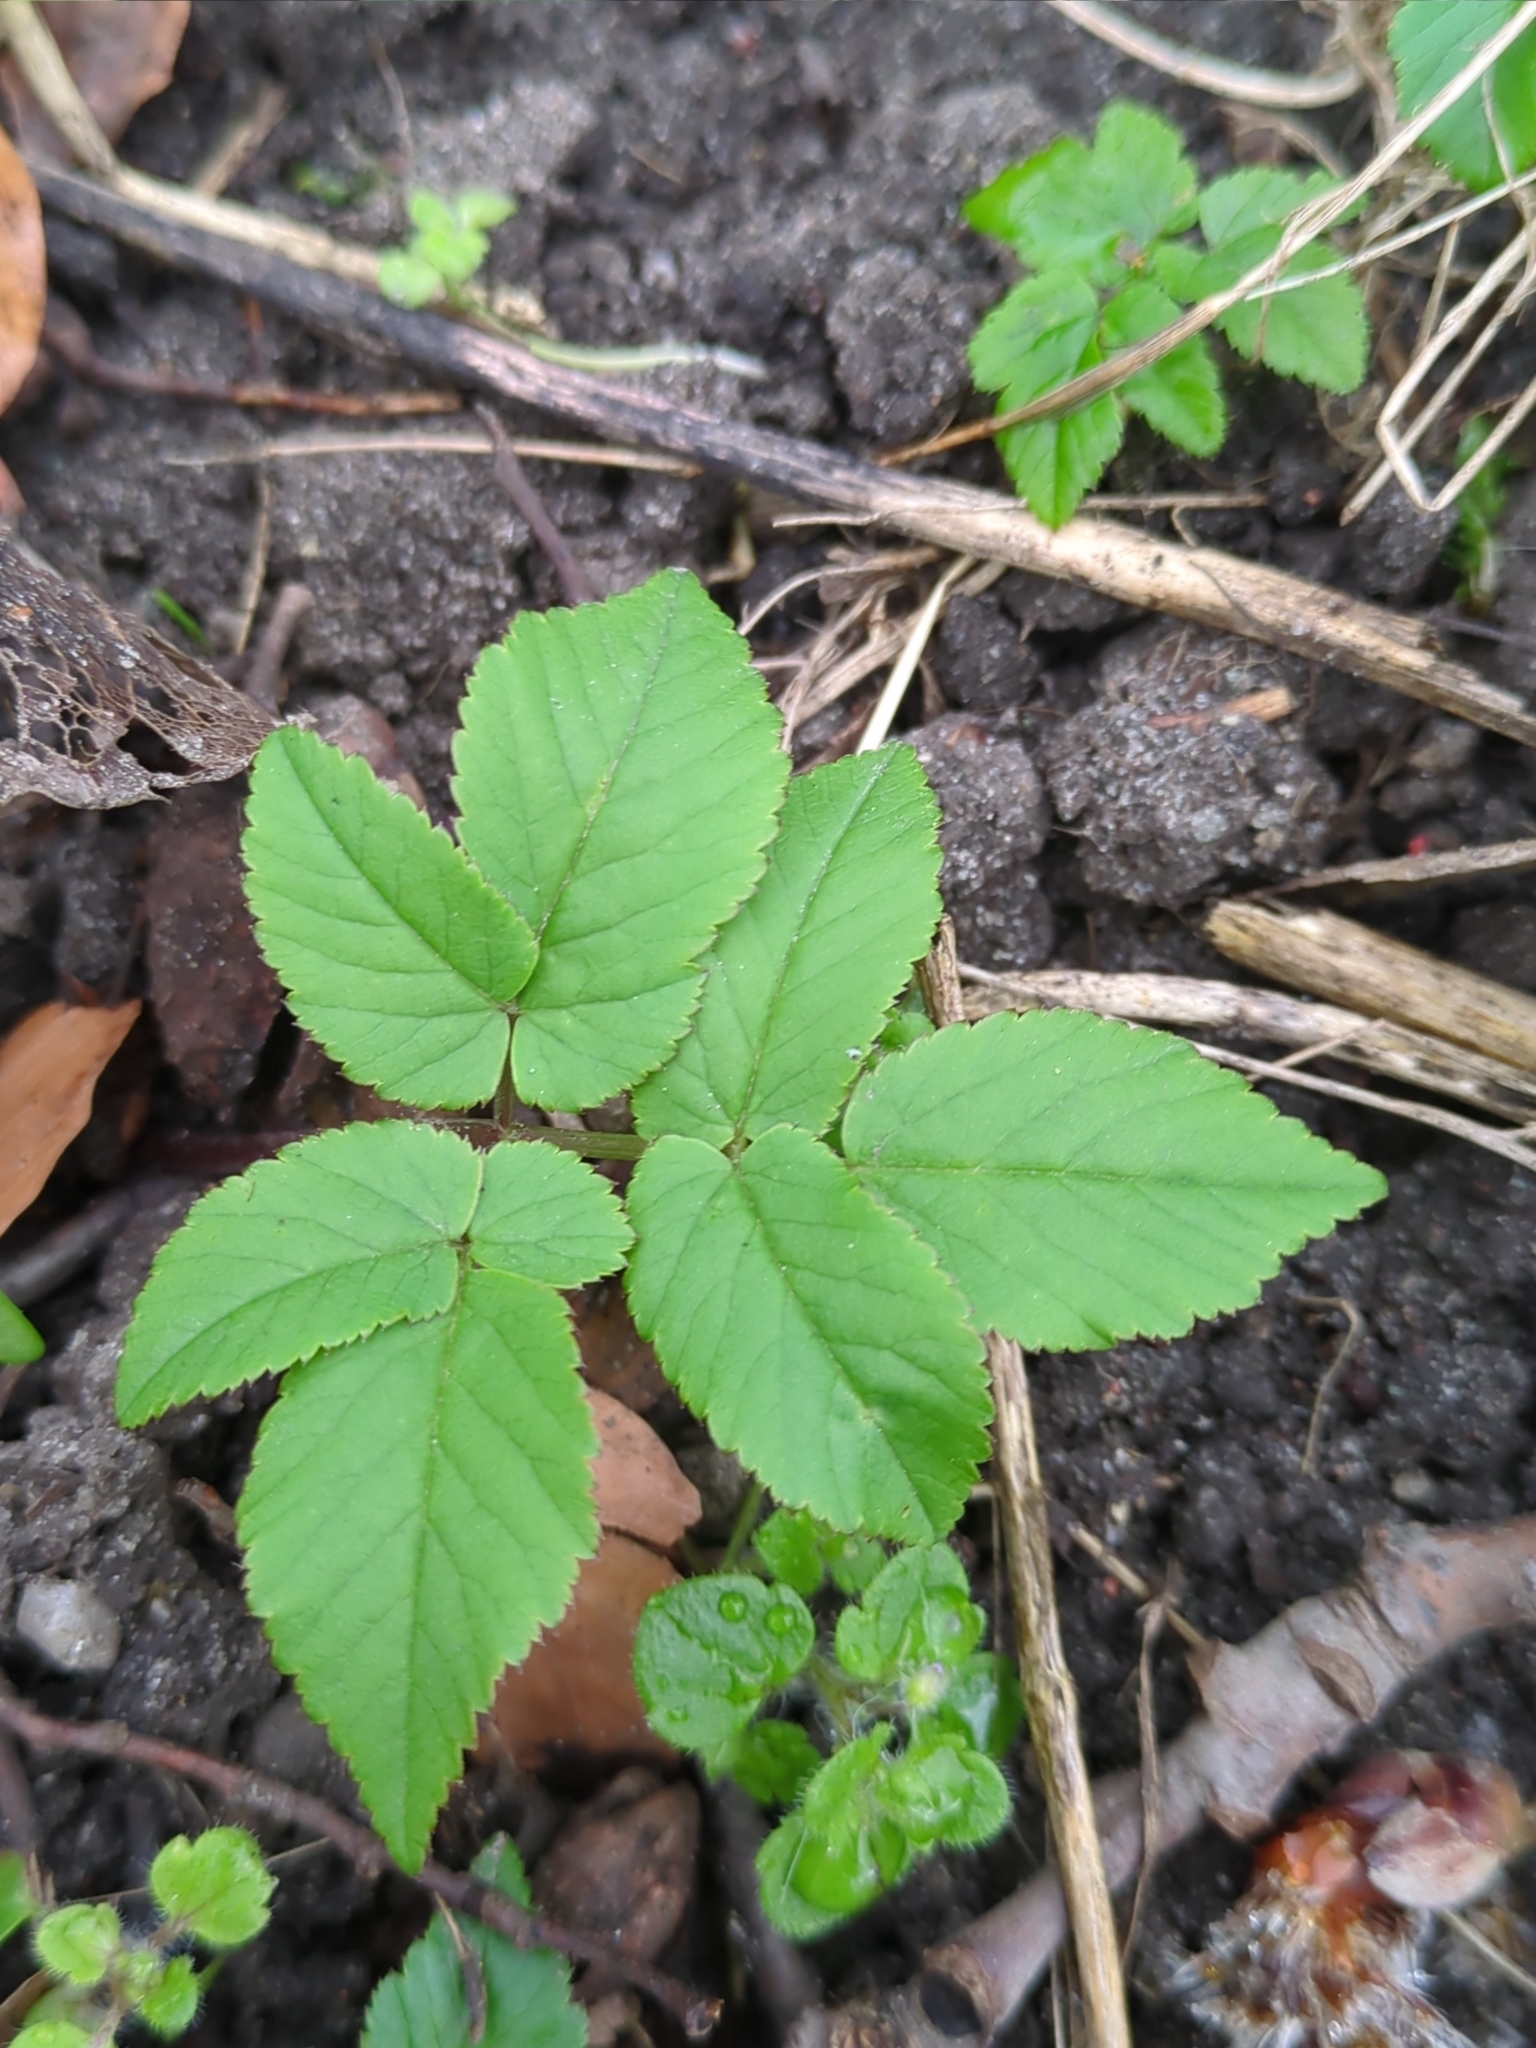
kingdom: Plantae
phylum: Tracheophyta
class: Magnoliopsida
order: Apiales
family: Apiaceae
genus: Aegopodium
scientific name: Aegopodium podagraria
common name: Ground-elder
